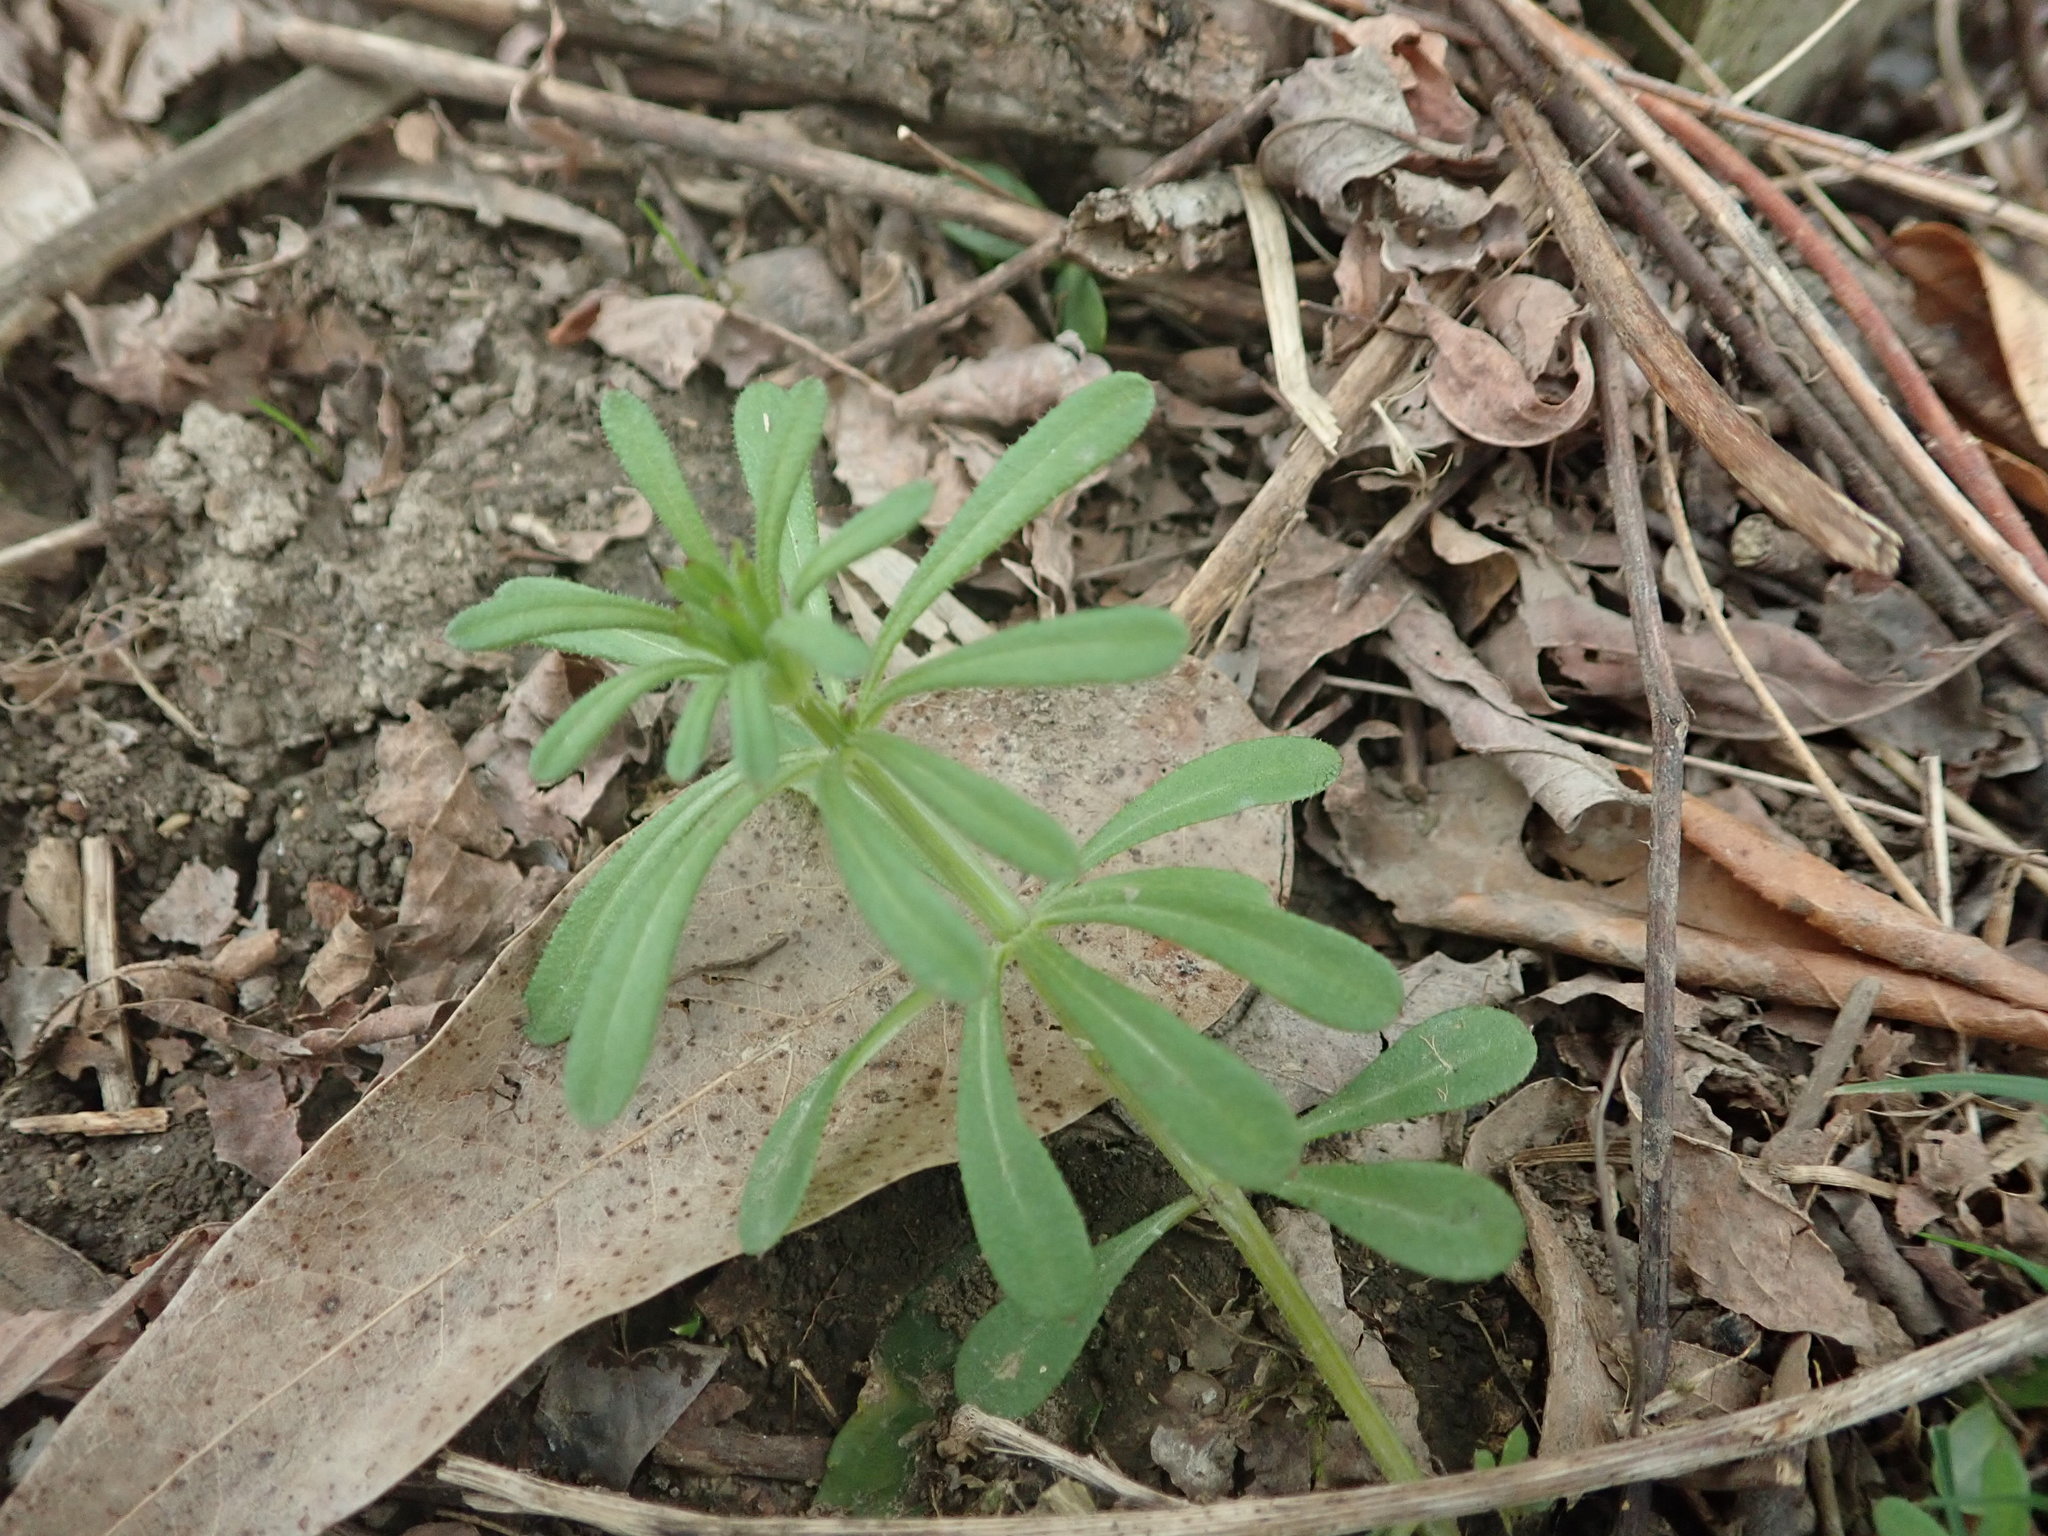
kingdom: Plantae
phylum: Tracheophyta
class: Magnoliopsida
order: Gentianales
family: Rubiaceae
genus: Galium
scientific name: Galium aparine
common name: Cleavers
